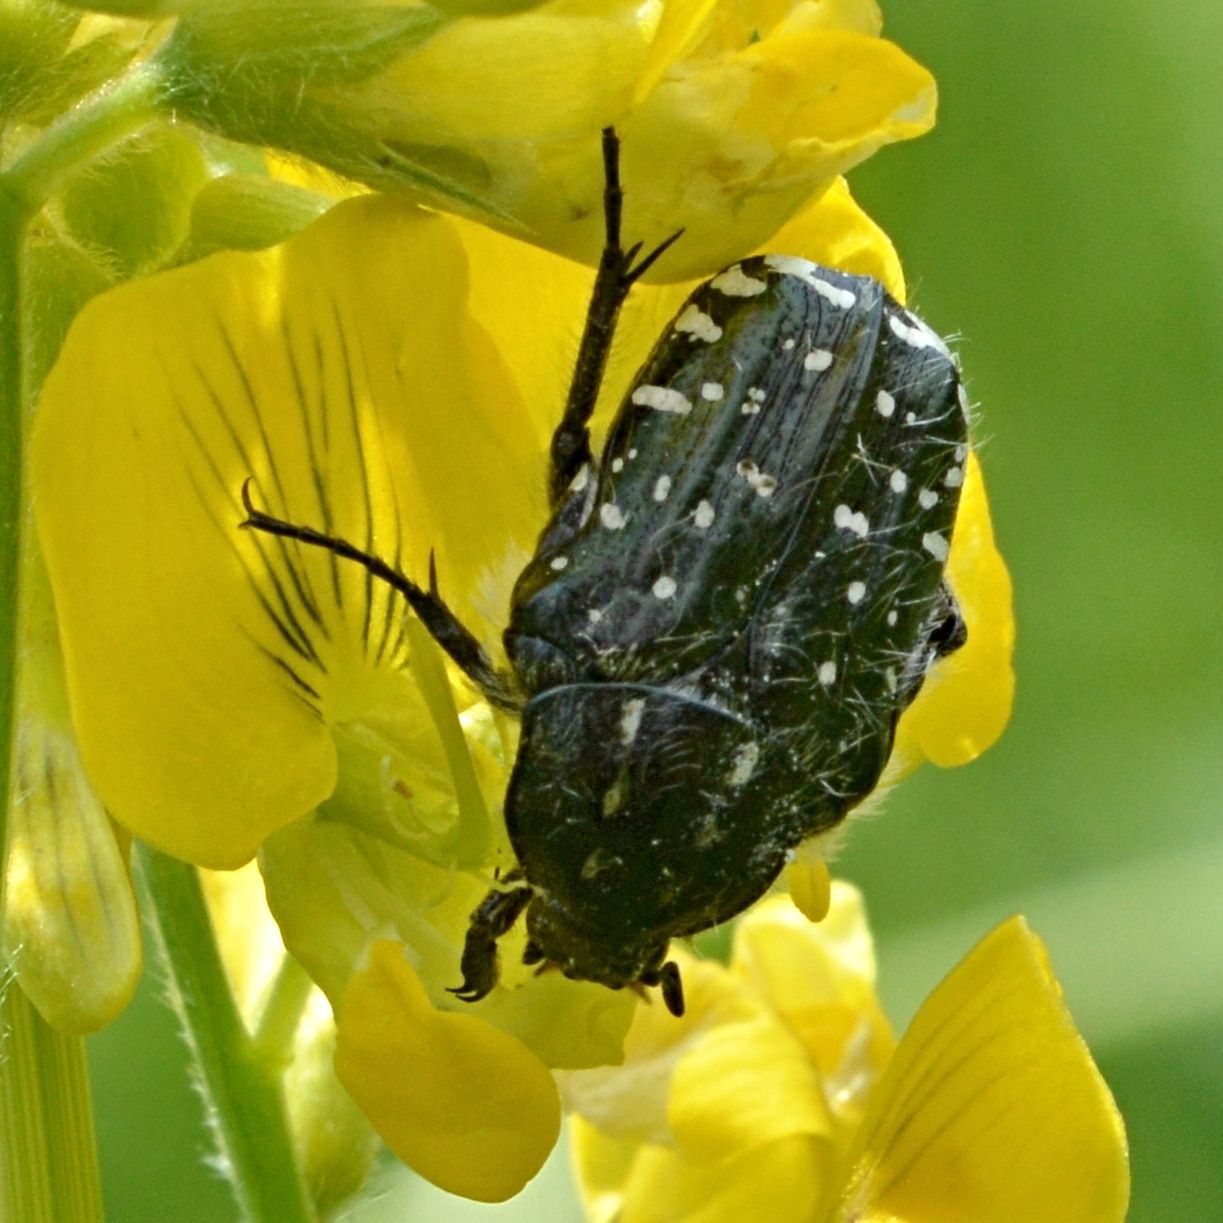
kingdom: Animalia
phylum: Arthropoda
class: Insecta
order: Coleoptera
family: Scarabaeidae
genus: Oxythyrea
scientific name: Oxythyrea funesta
